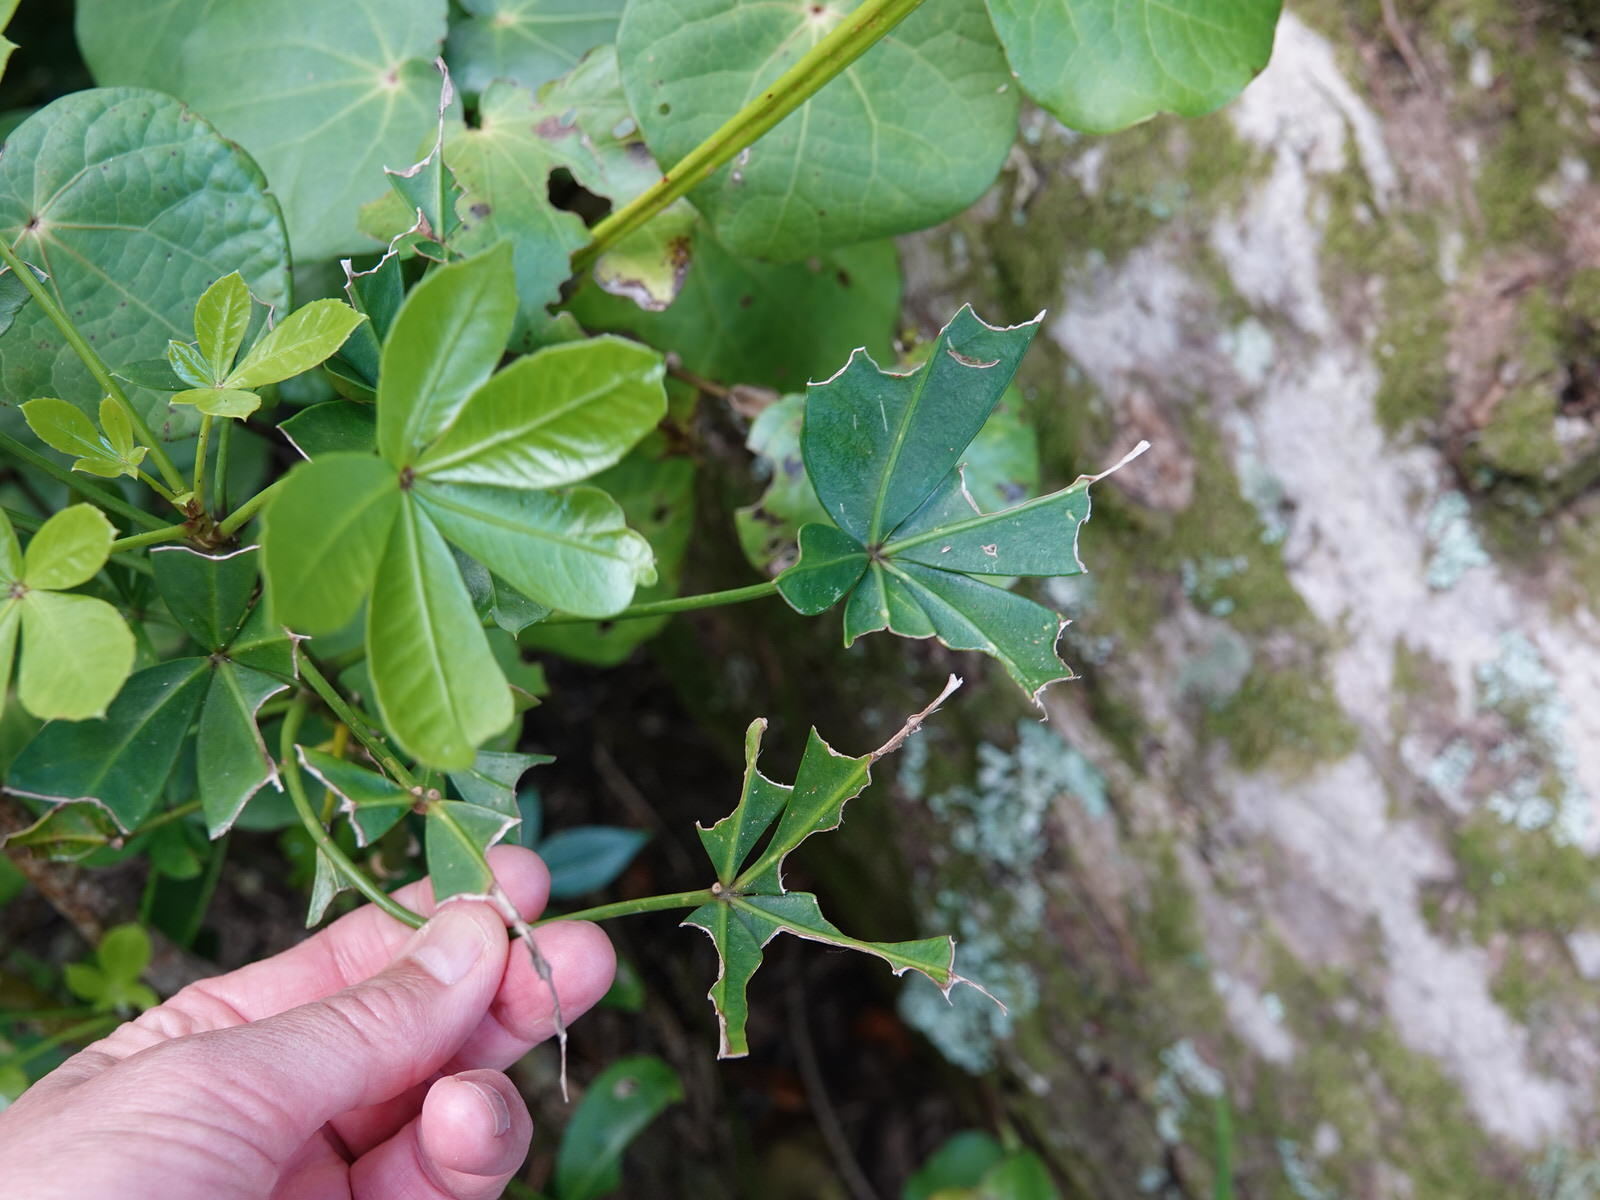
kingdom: Animalia
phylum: Chordata
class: Mammalia
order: Diprotodontia
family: Phalangeridae
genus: Trichosurus
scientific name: Trichosurus vulpecula
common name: Common brushtail
